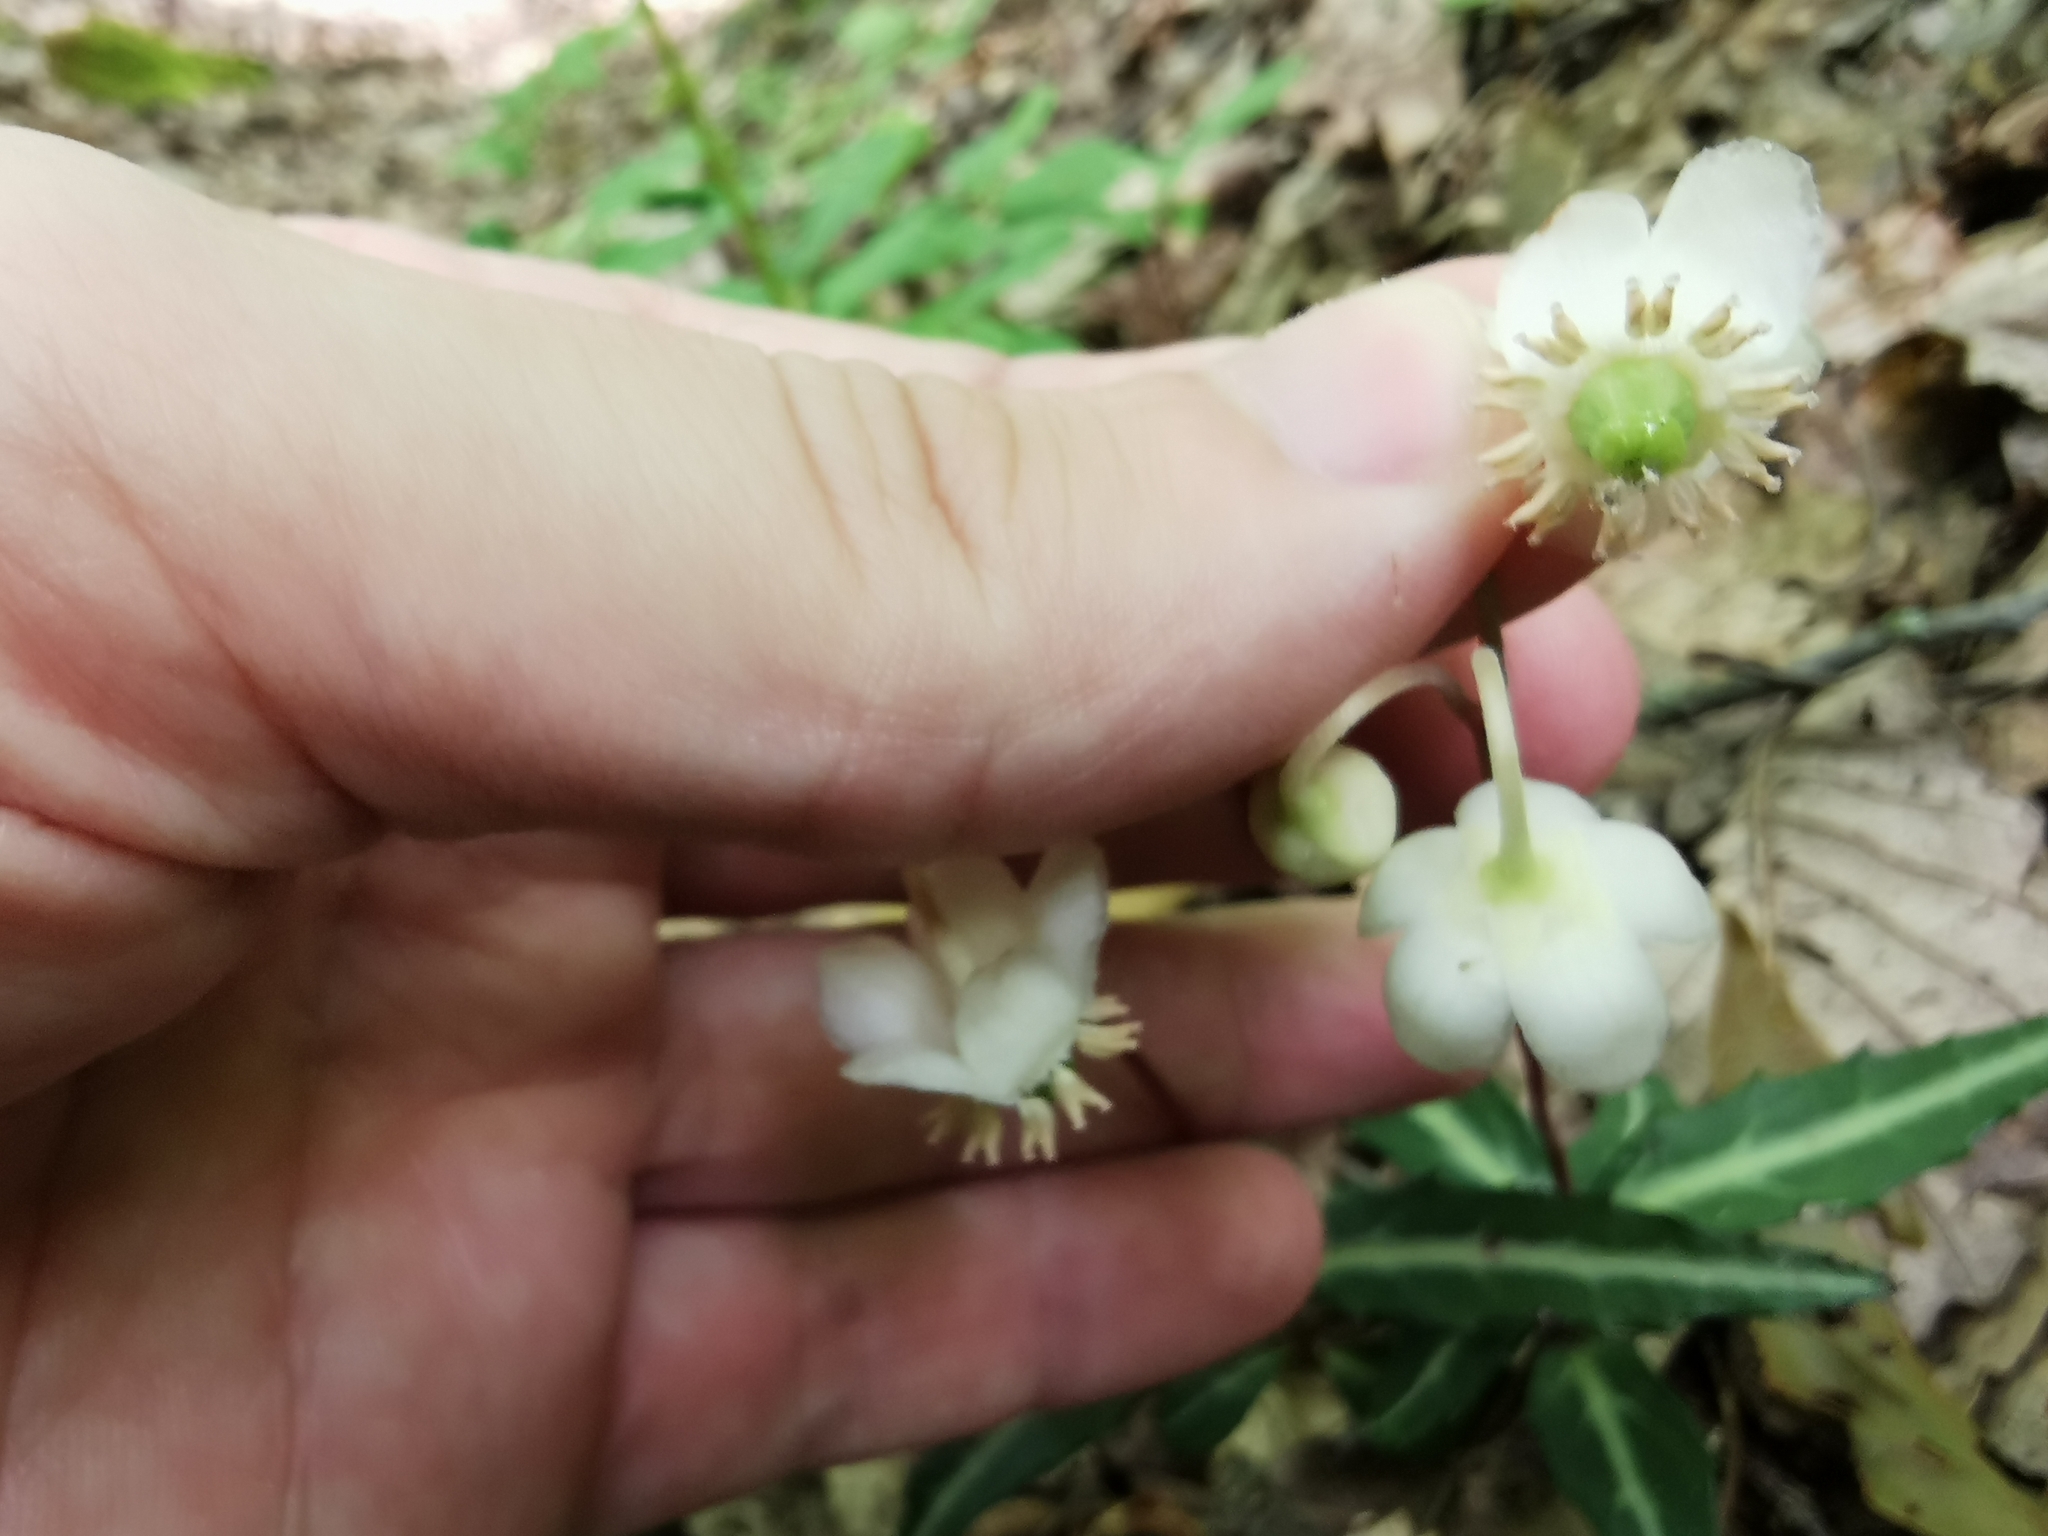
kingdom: Plantae
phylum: Tracheophyta
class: Magnoliopsida
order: Ericales
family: Ericaceae
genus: Chimaphila
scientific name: Chimaphila maculata
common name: Spotted pipsissewa
